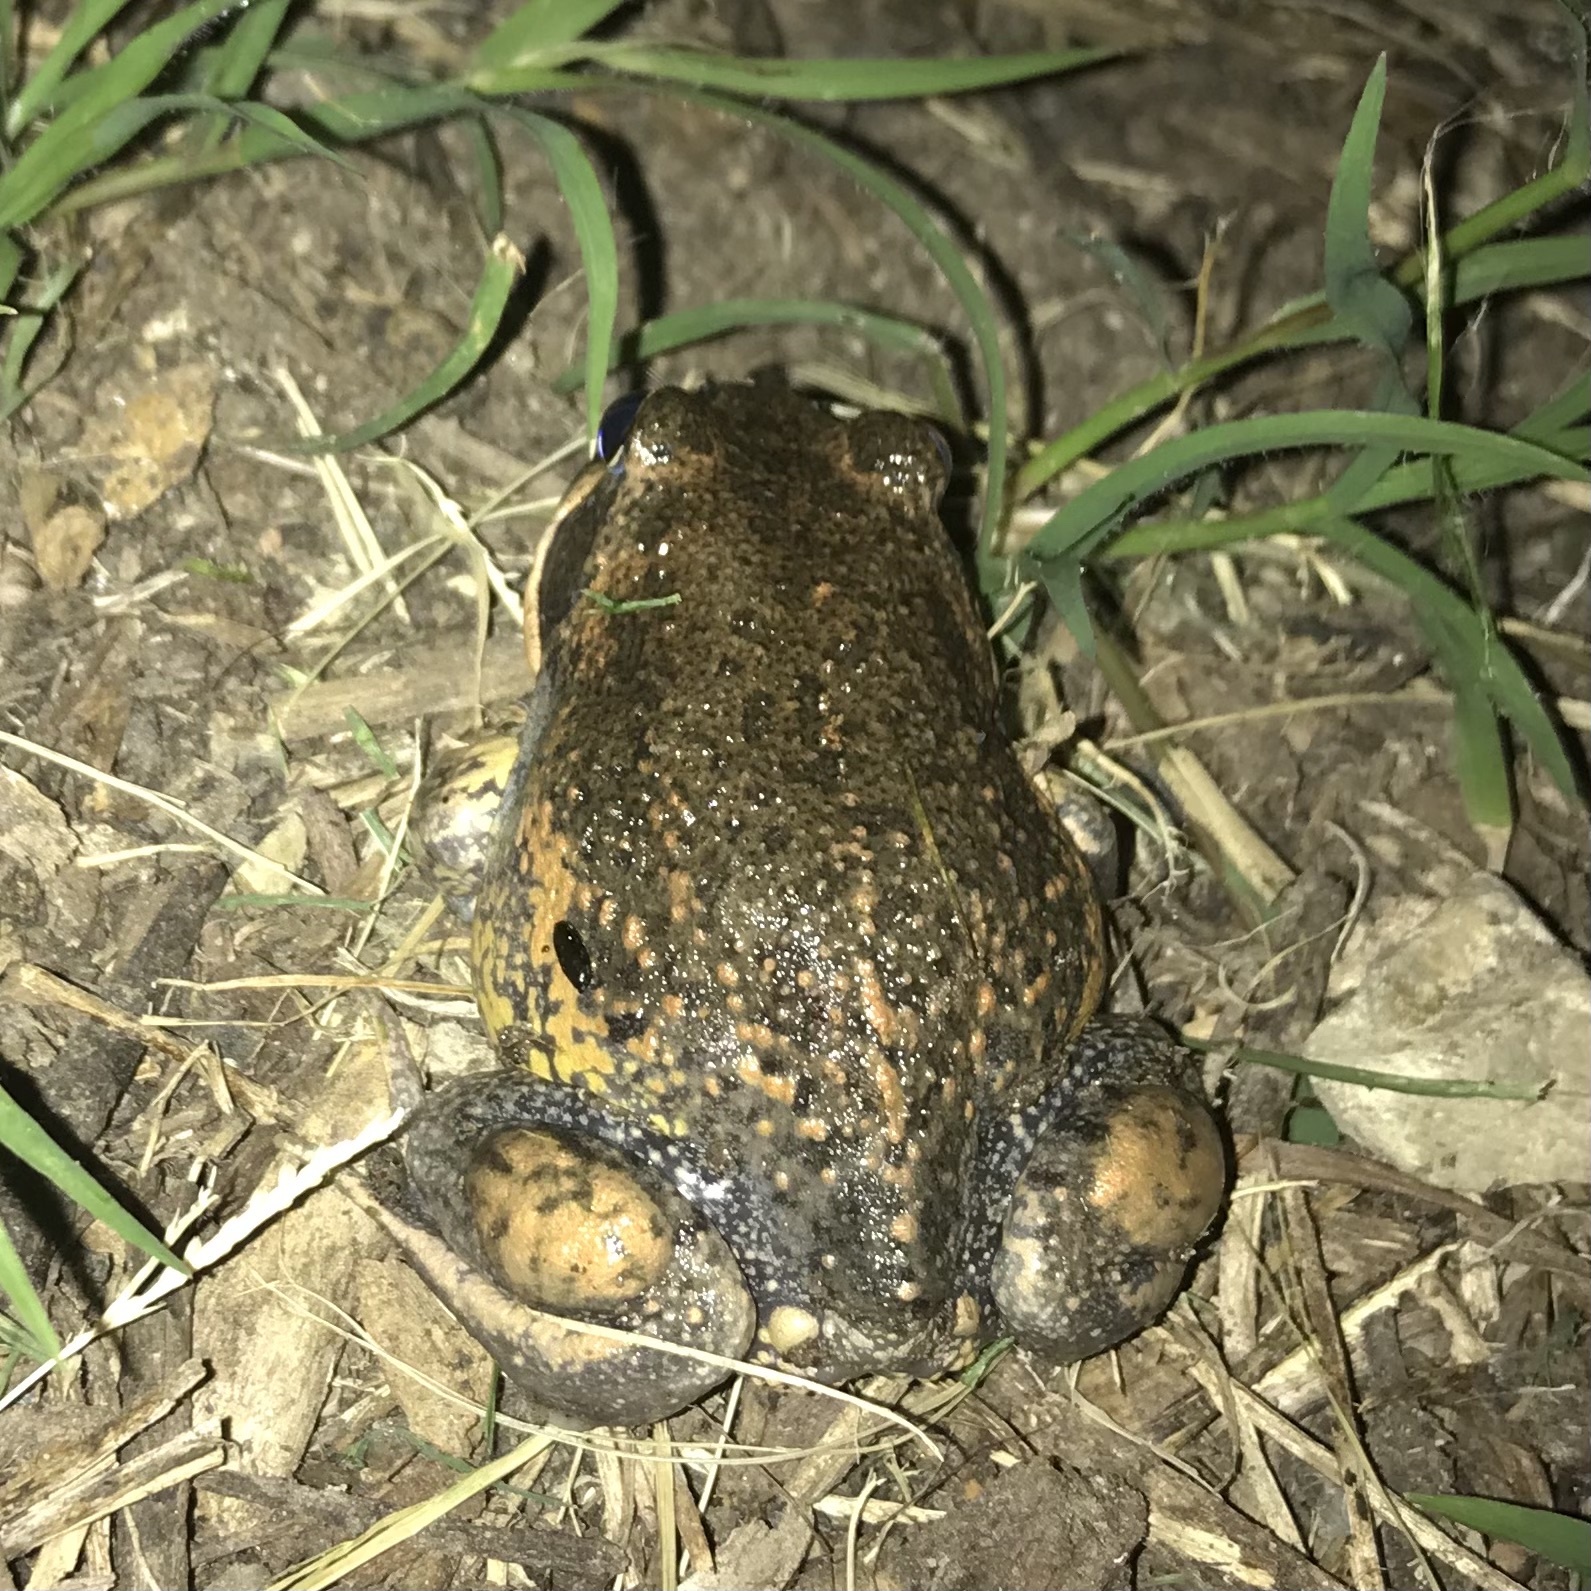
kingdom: Animalia
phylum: Chordata
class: Amphibia
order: Anura
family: Limnodynastidae
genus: Limnodynastes
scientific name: Limnodynastes dumerilii
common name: Banjo frog
